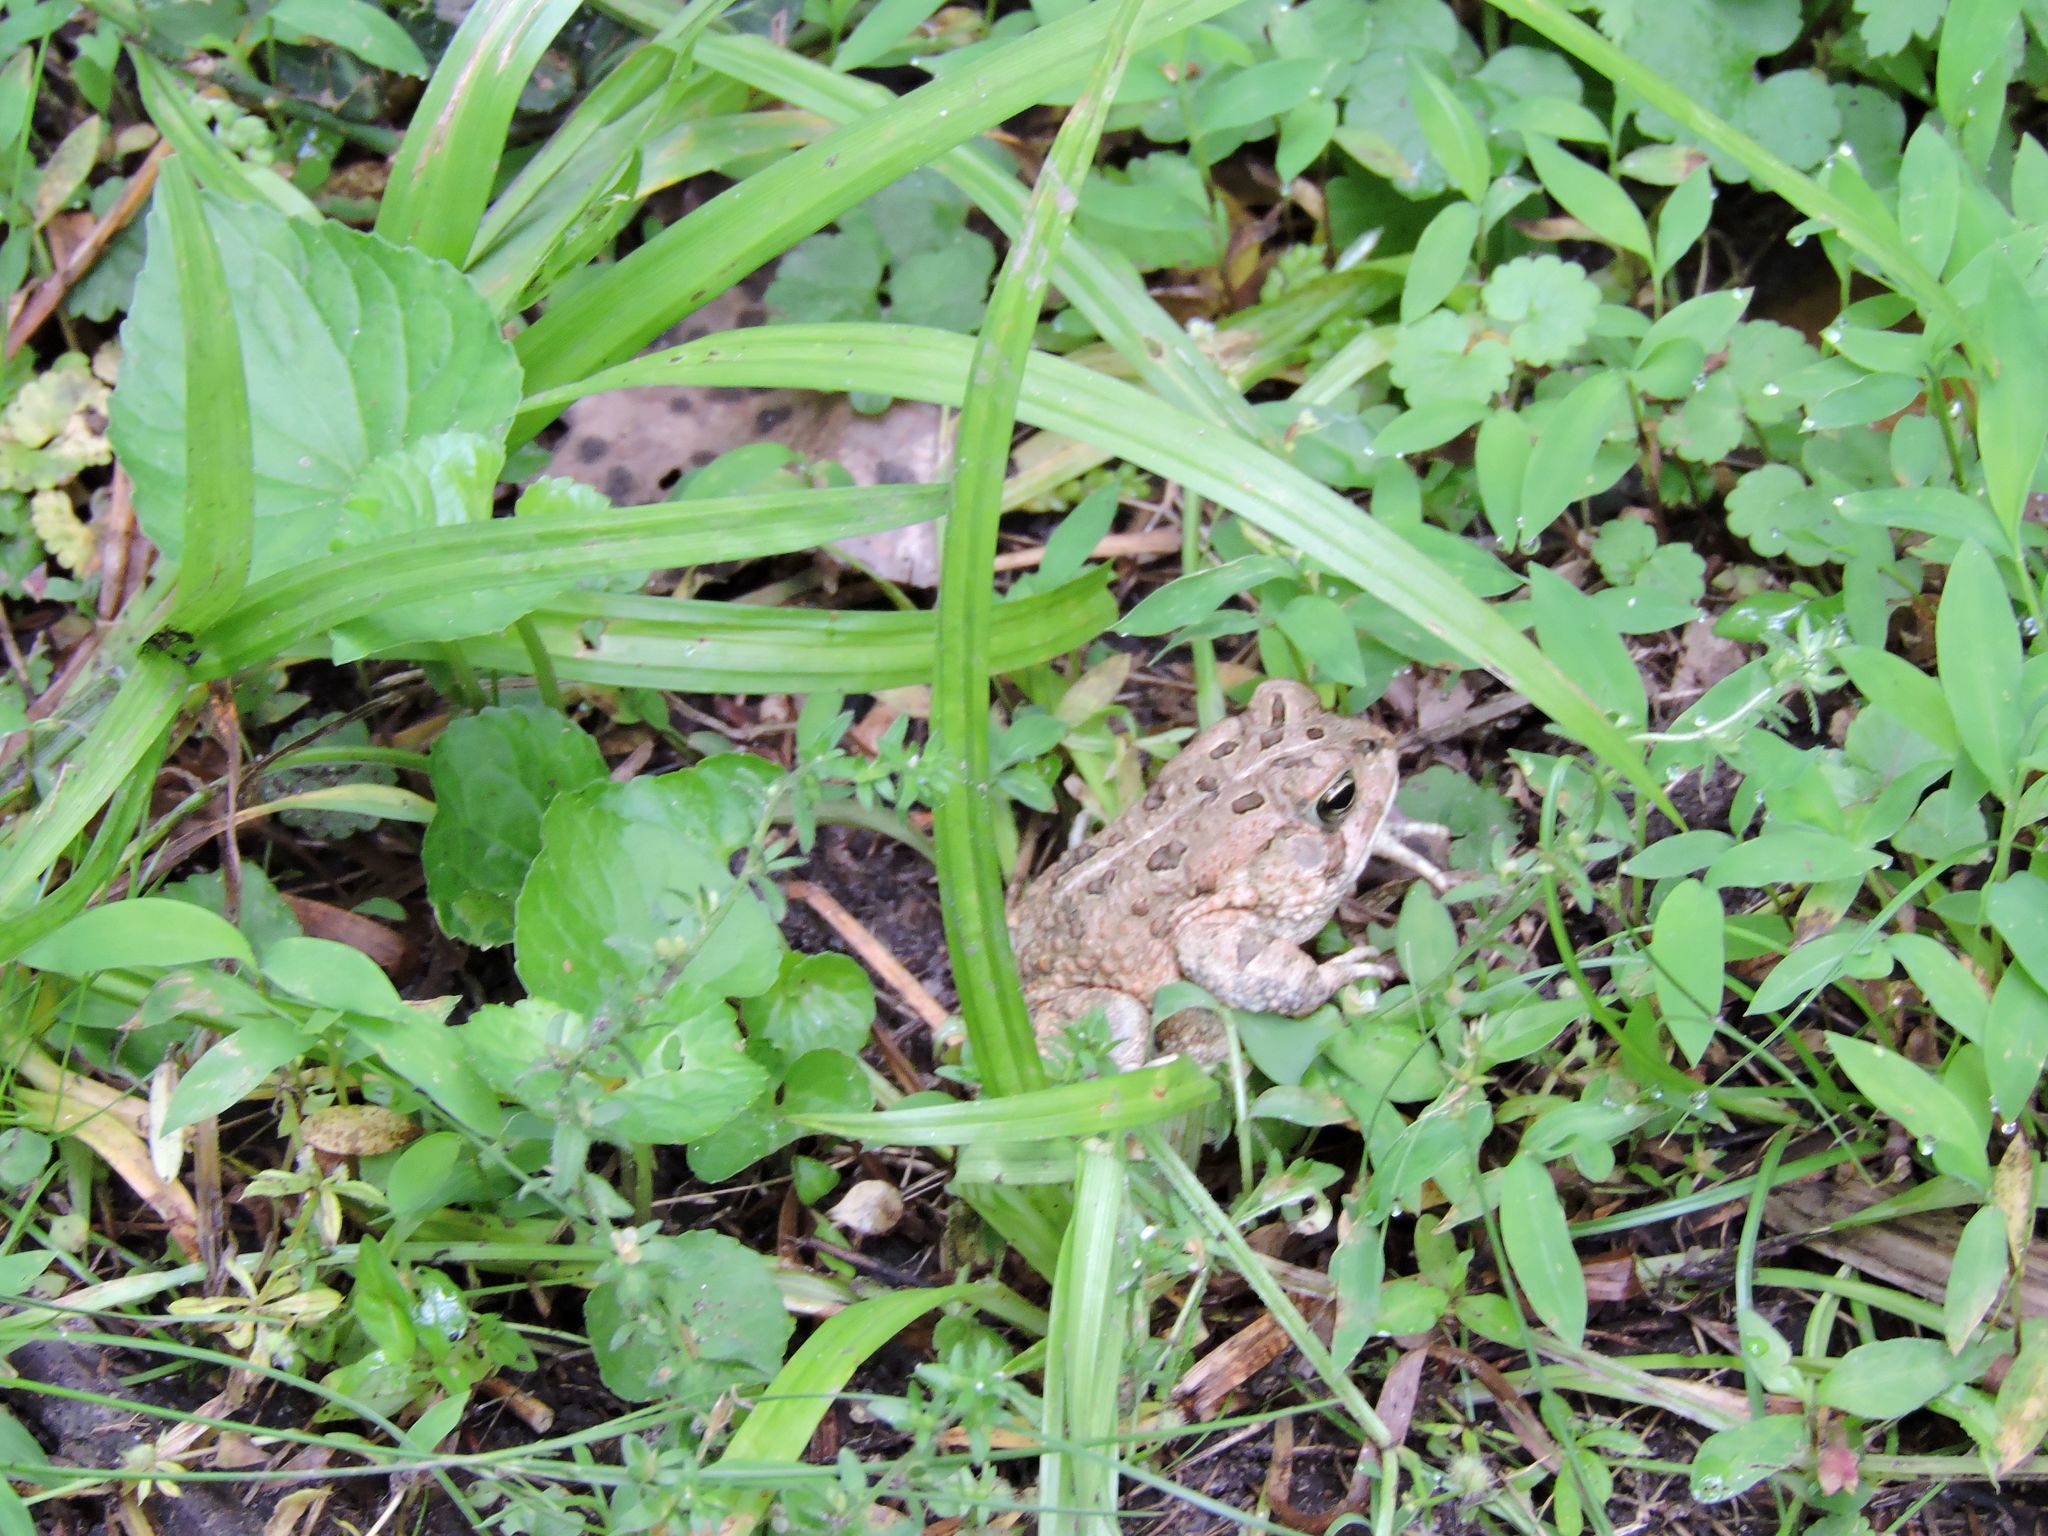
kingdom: Animalia
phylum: Chordata
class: Amphibia
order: Anura
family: Bufonidae
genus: Anaxyrus
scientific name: Anaxyrus fowleri
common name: Fowler's toad
